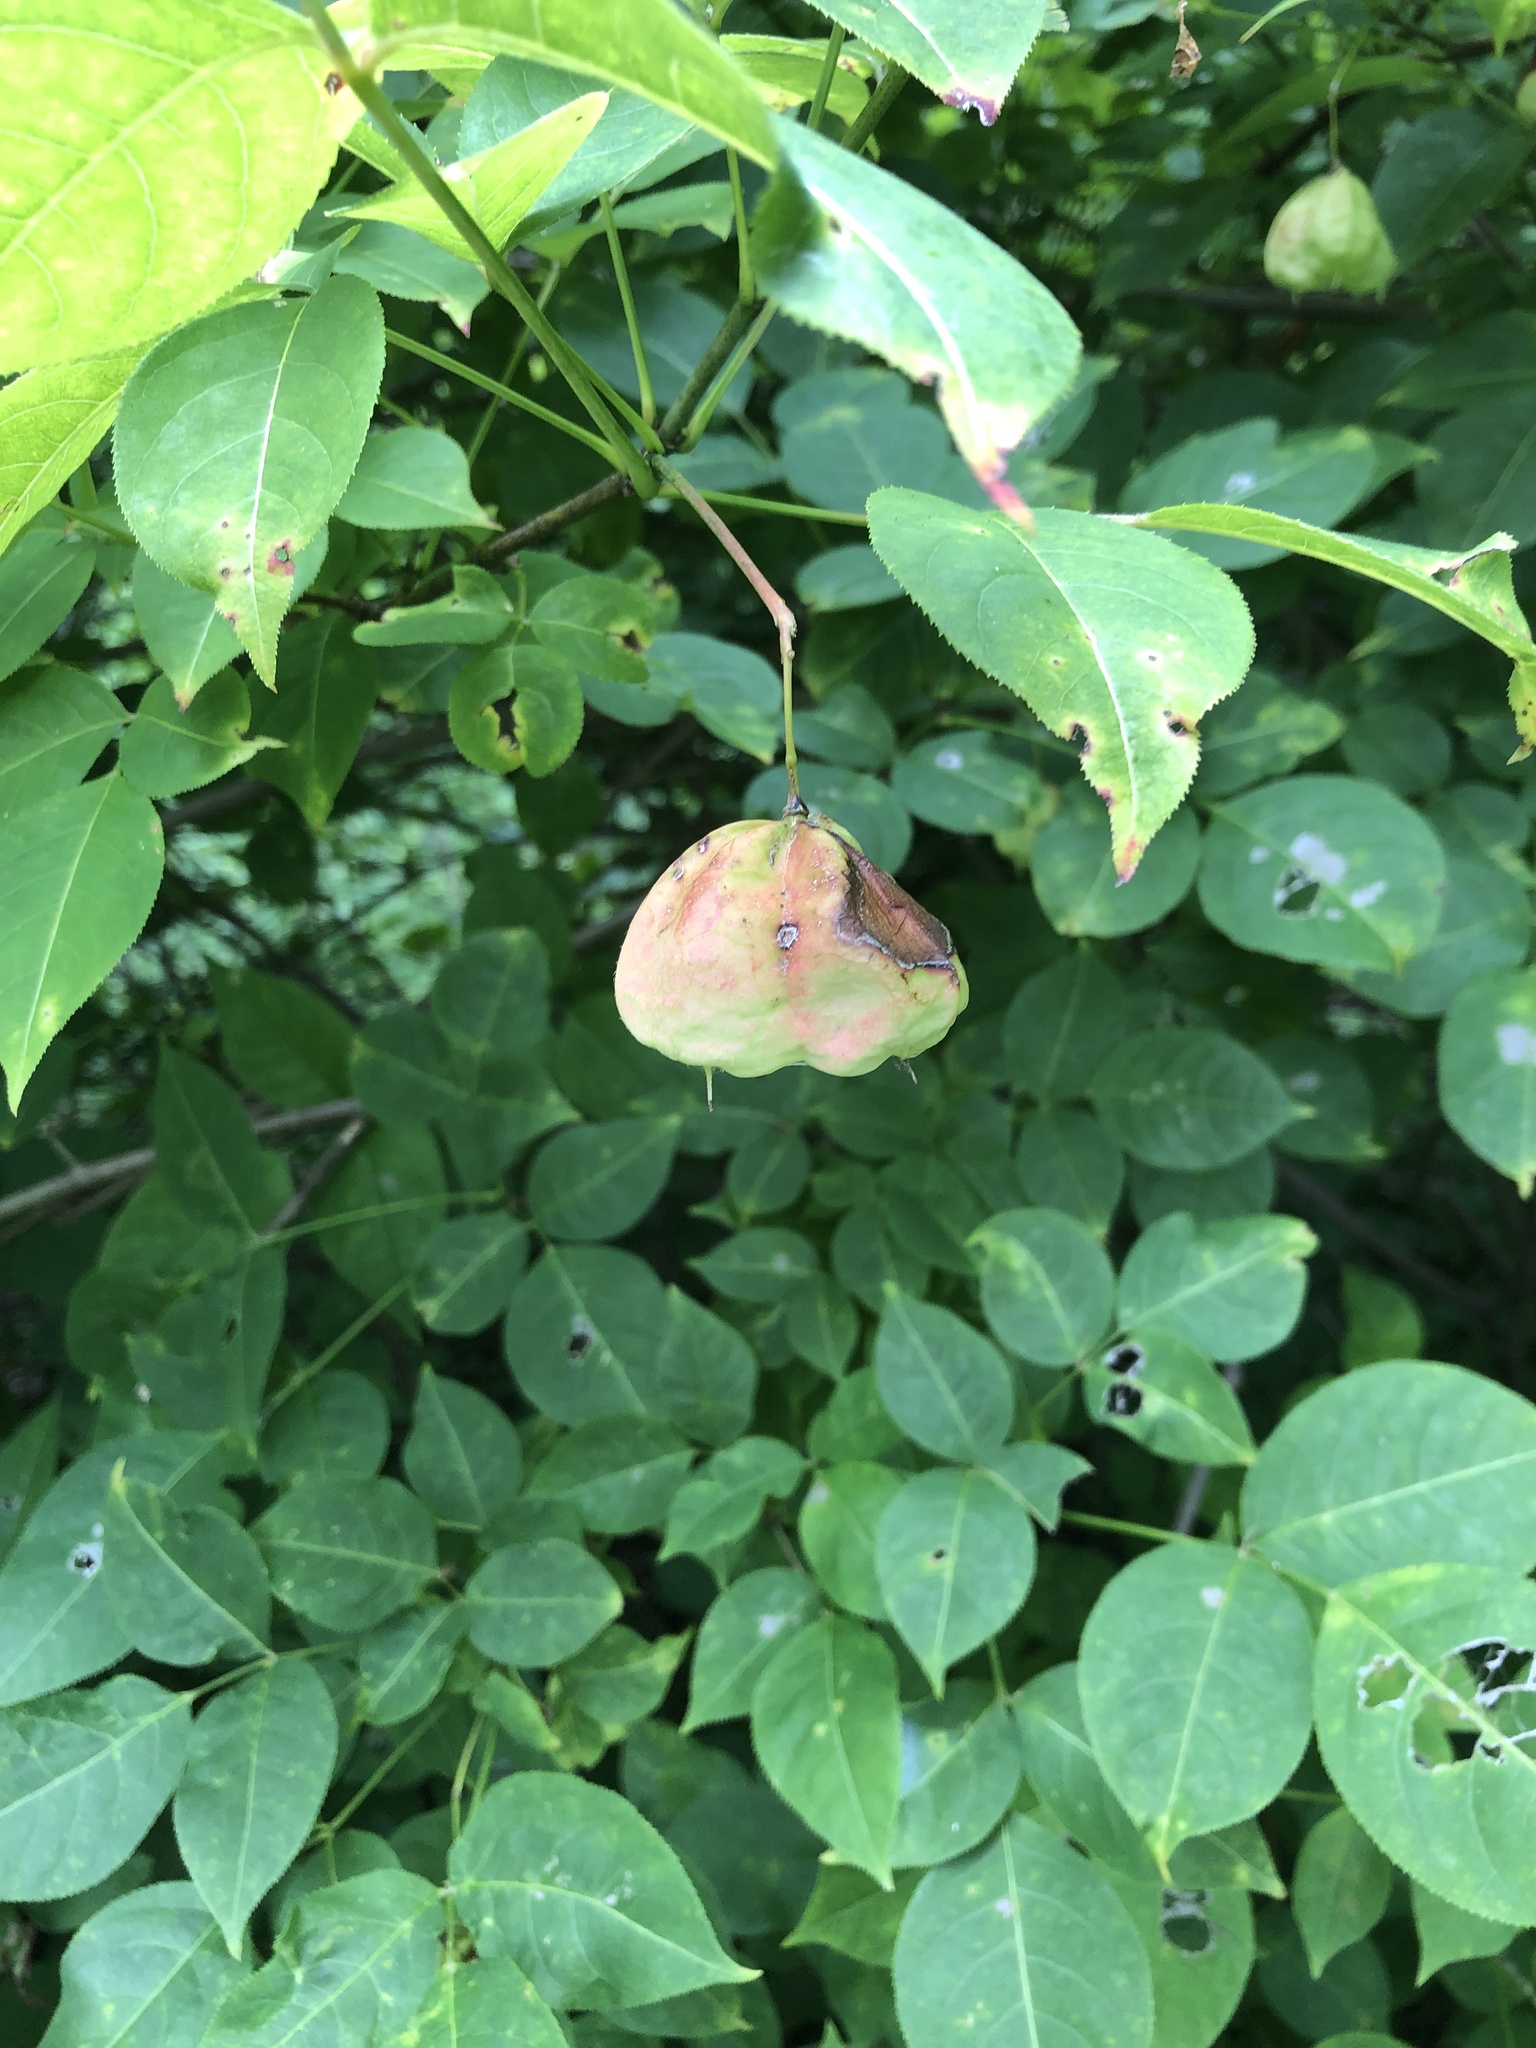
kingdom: Plantae
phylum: Tracheophyta
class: Magnoliopsida
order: Crossosomatales
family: Staphyleaceae
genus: Staphylea
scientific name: Staphylea trifolia
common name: American bladdernut
